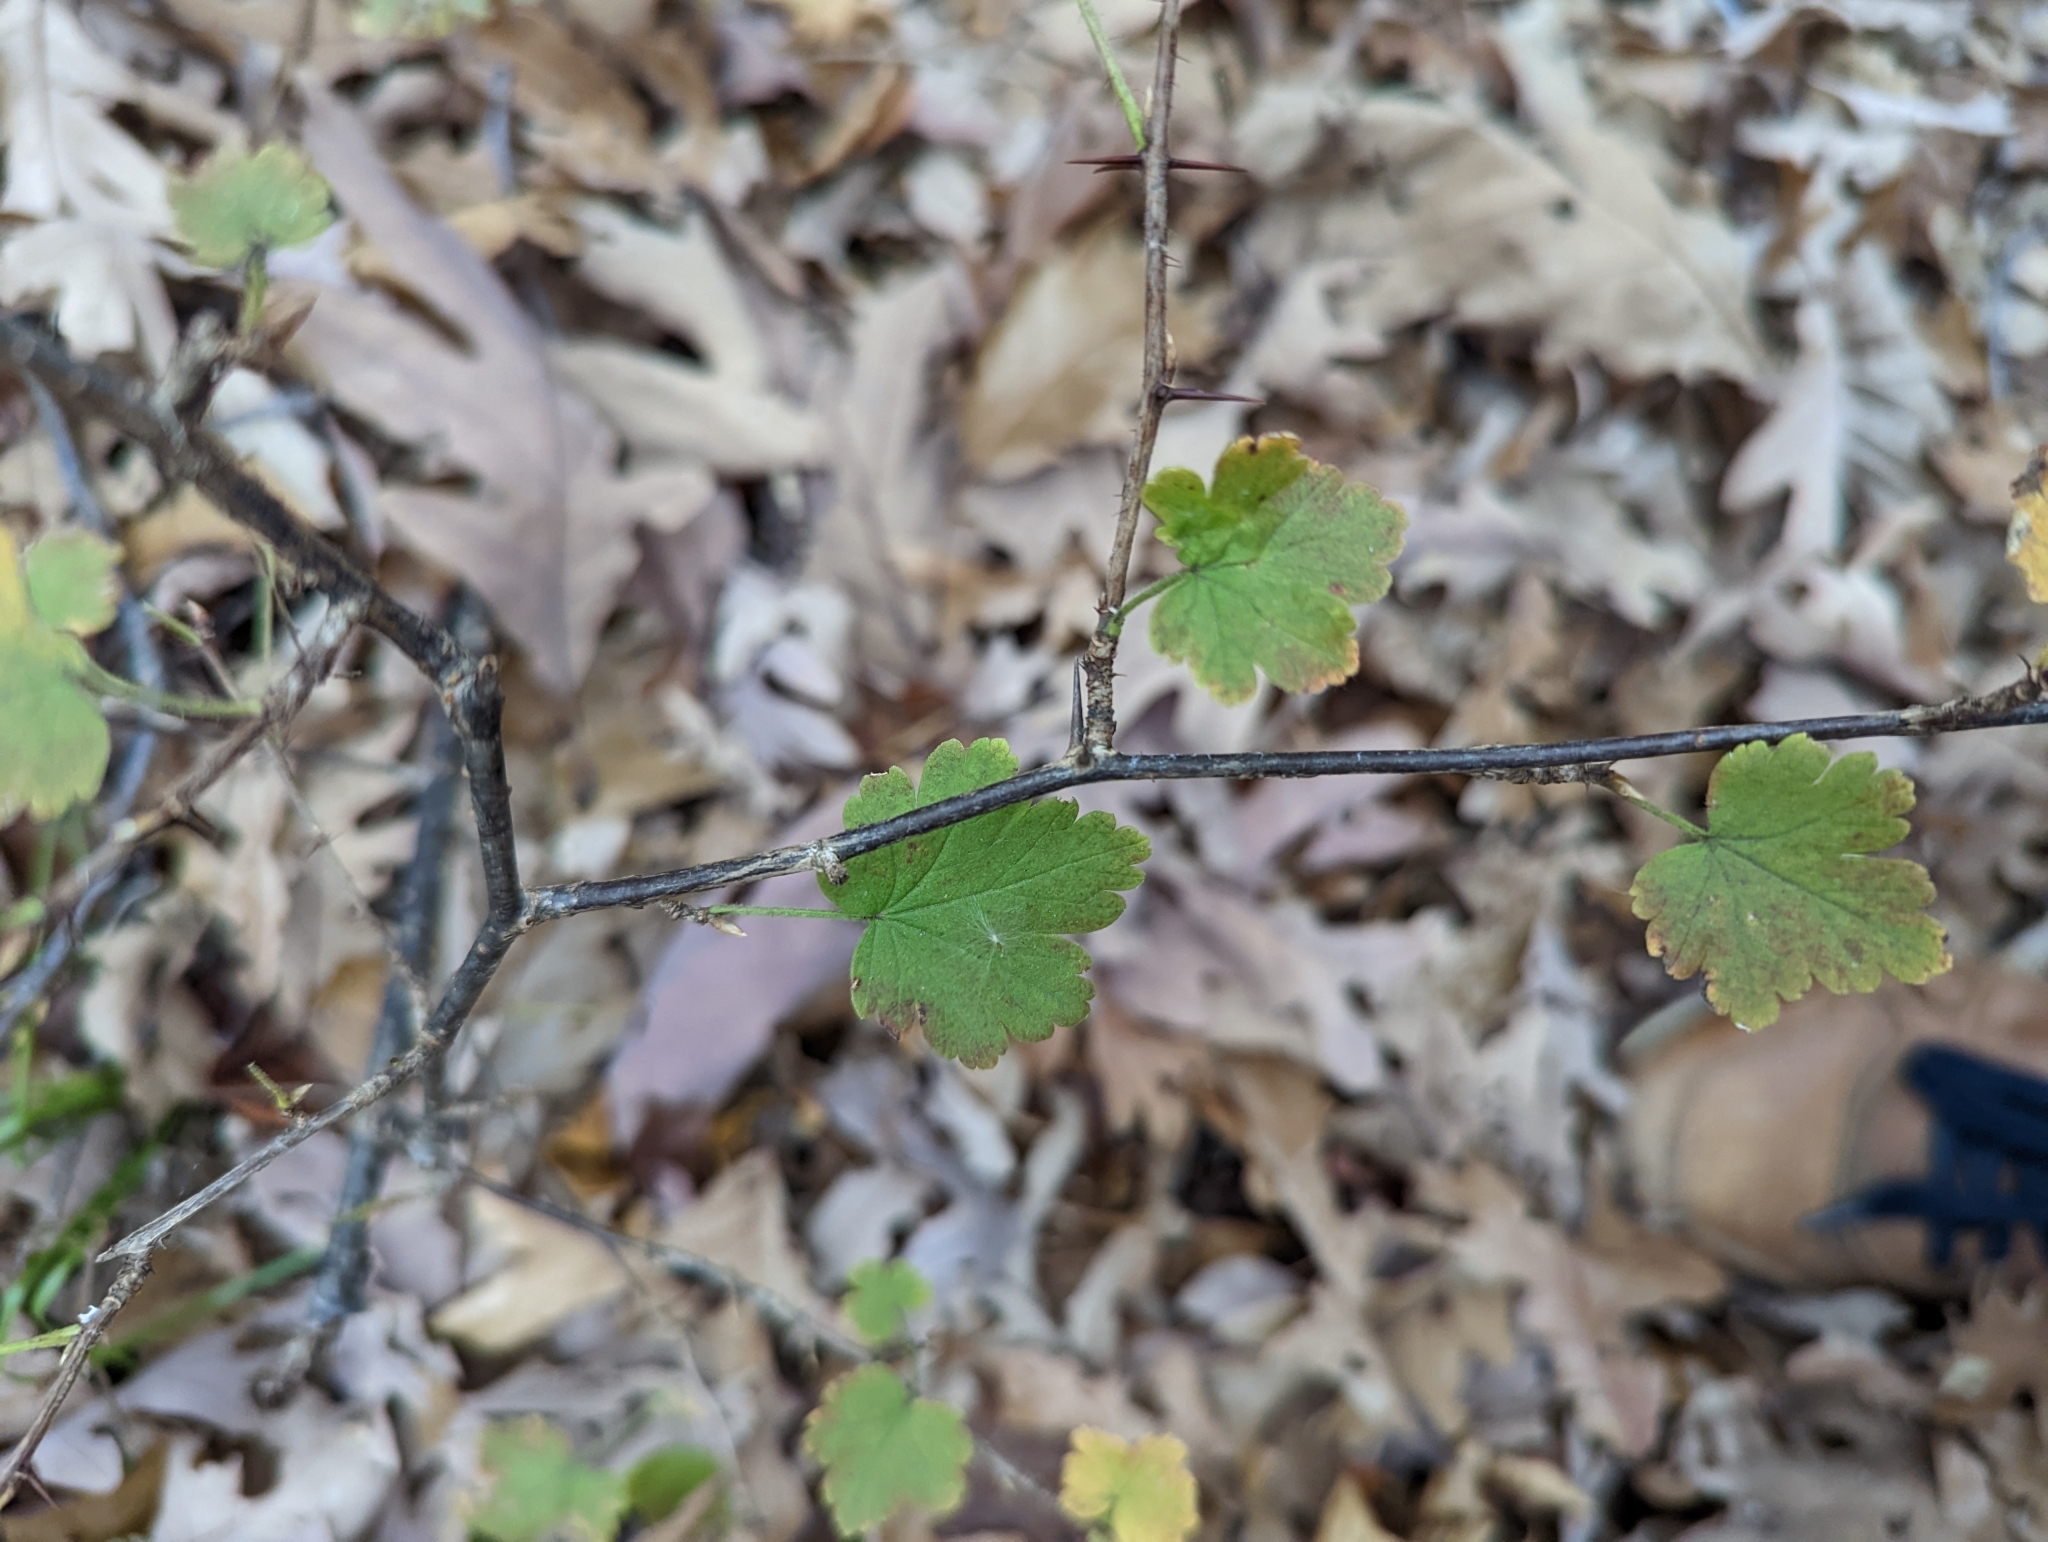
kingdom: Plantae
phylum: Tracheophyta
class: Magnoliopsida
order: Saxifragales
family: Grossulariaceae
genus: Ribes
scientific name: Ribes cynosbati
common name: American gooseberry
